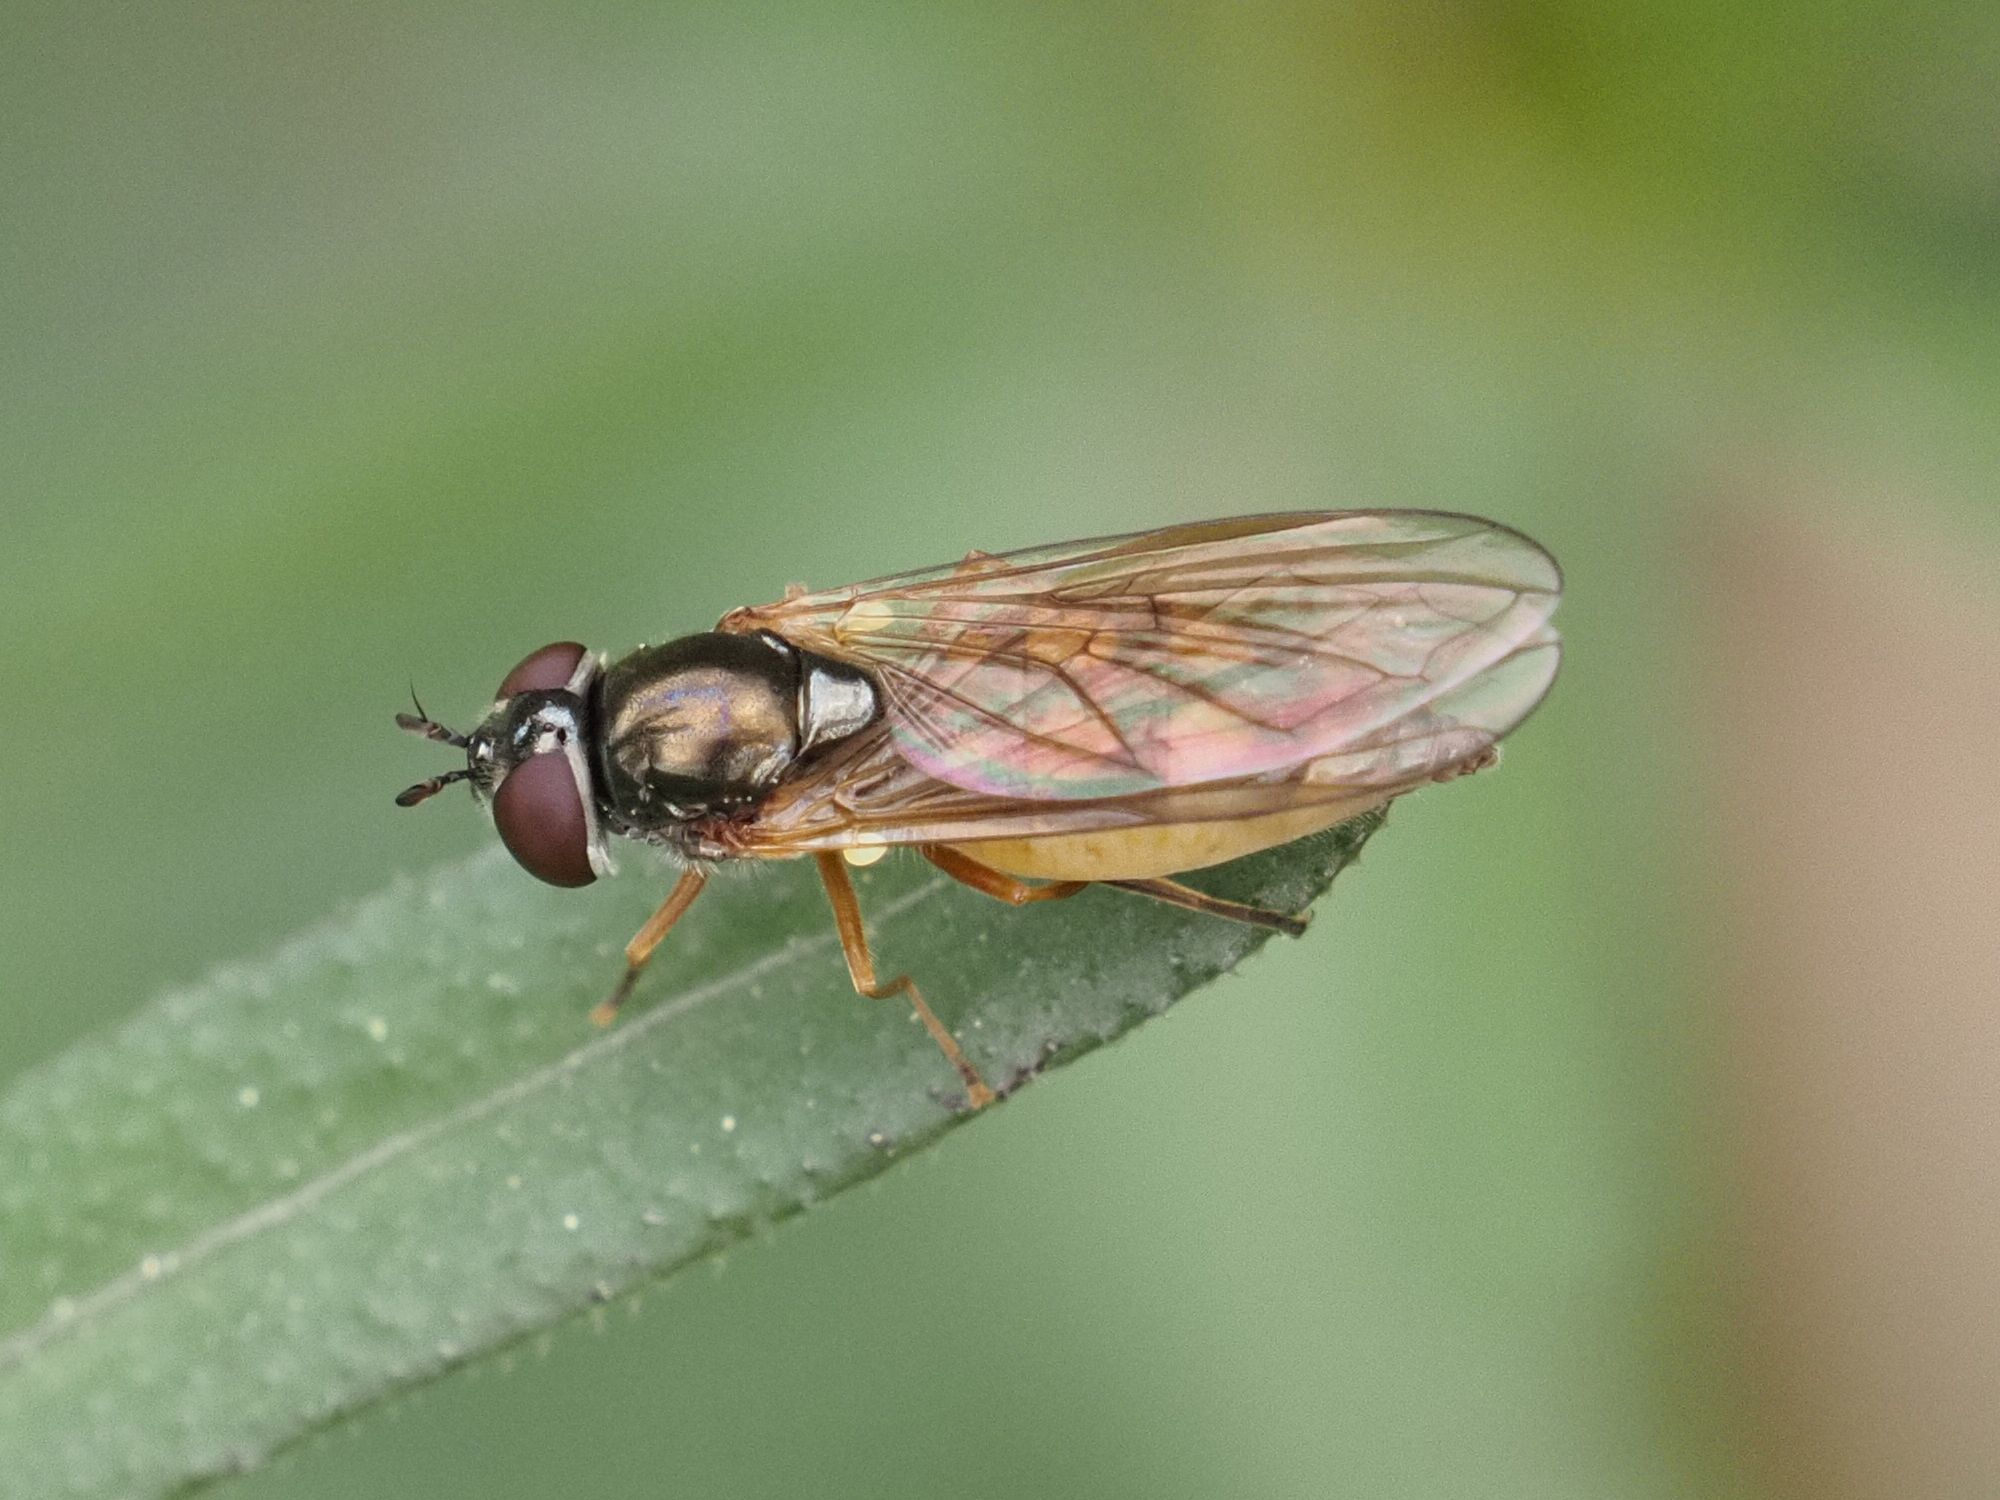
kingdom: Animalia
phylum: Arthropoda
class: Insecta
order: Diptera
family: Syrphidae
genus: Melanostoma
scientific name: Melanostoma mellina
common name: Hover fly
